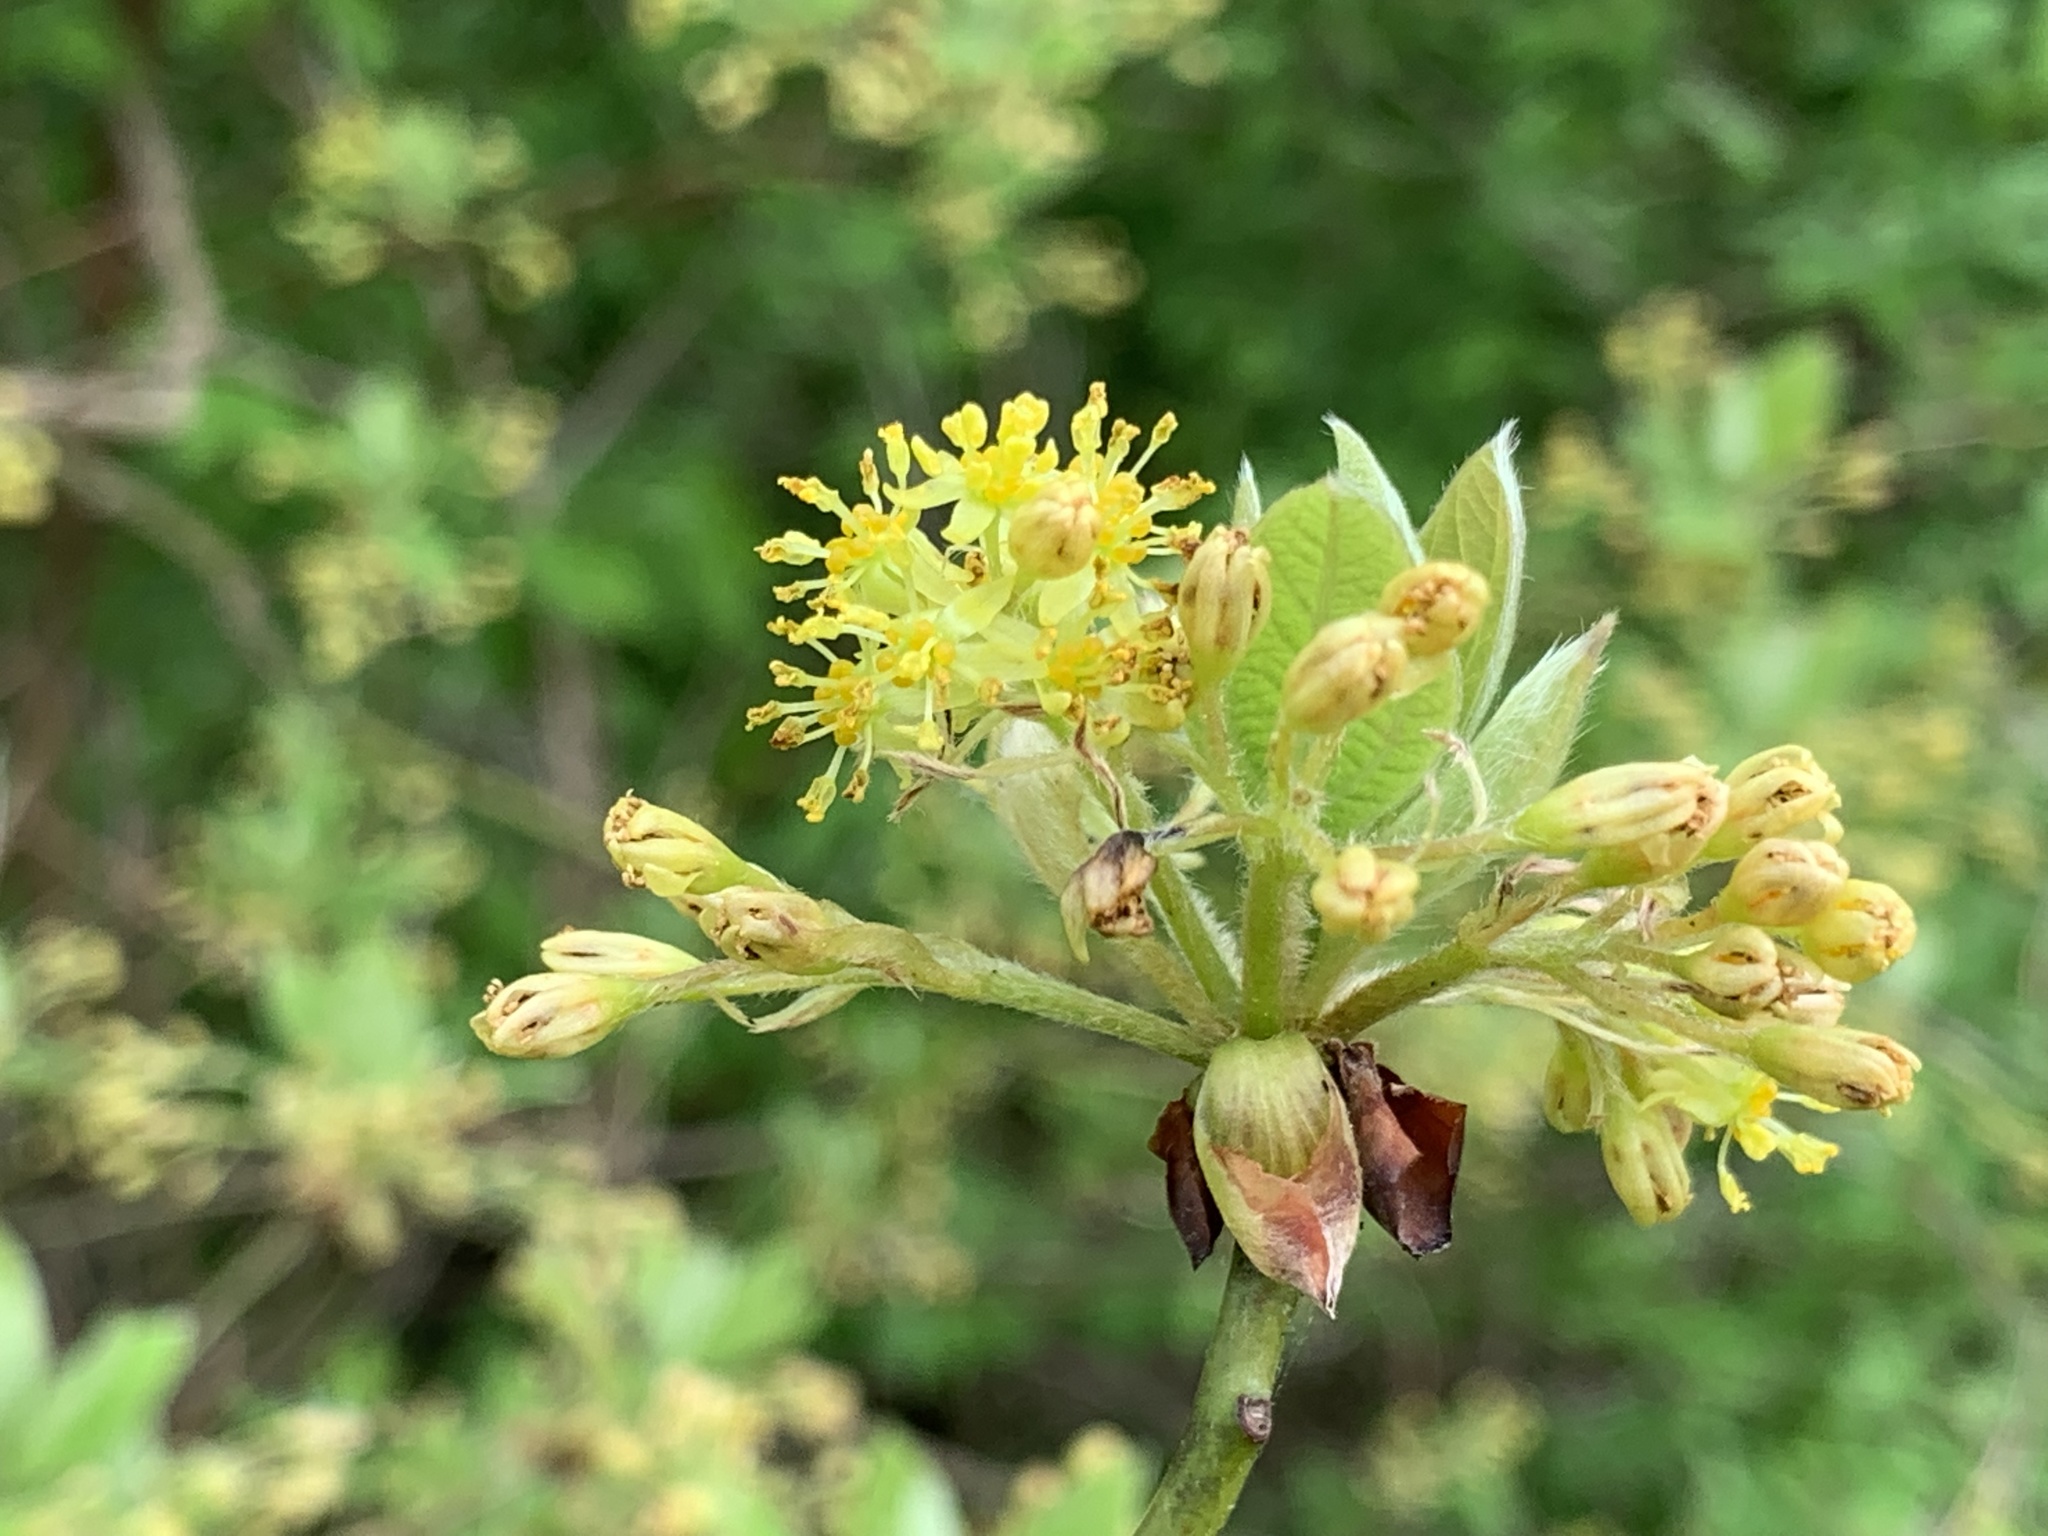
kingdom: Plantae
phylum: Tracheophyta
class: Magnoliopsida
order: Laurales
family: Lauraceae
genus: Sassafras
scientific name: Sassafras albidum
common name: Sassafras
